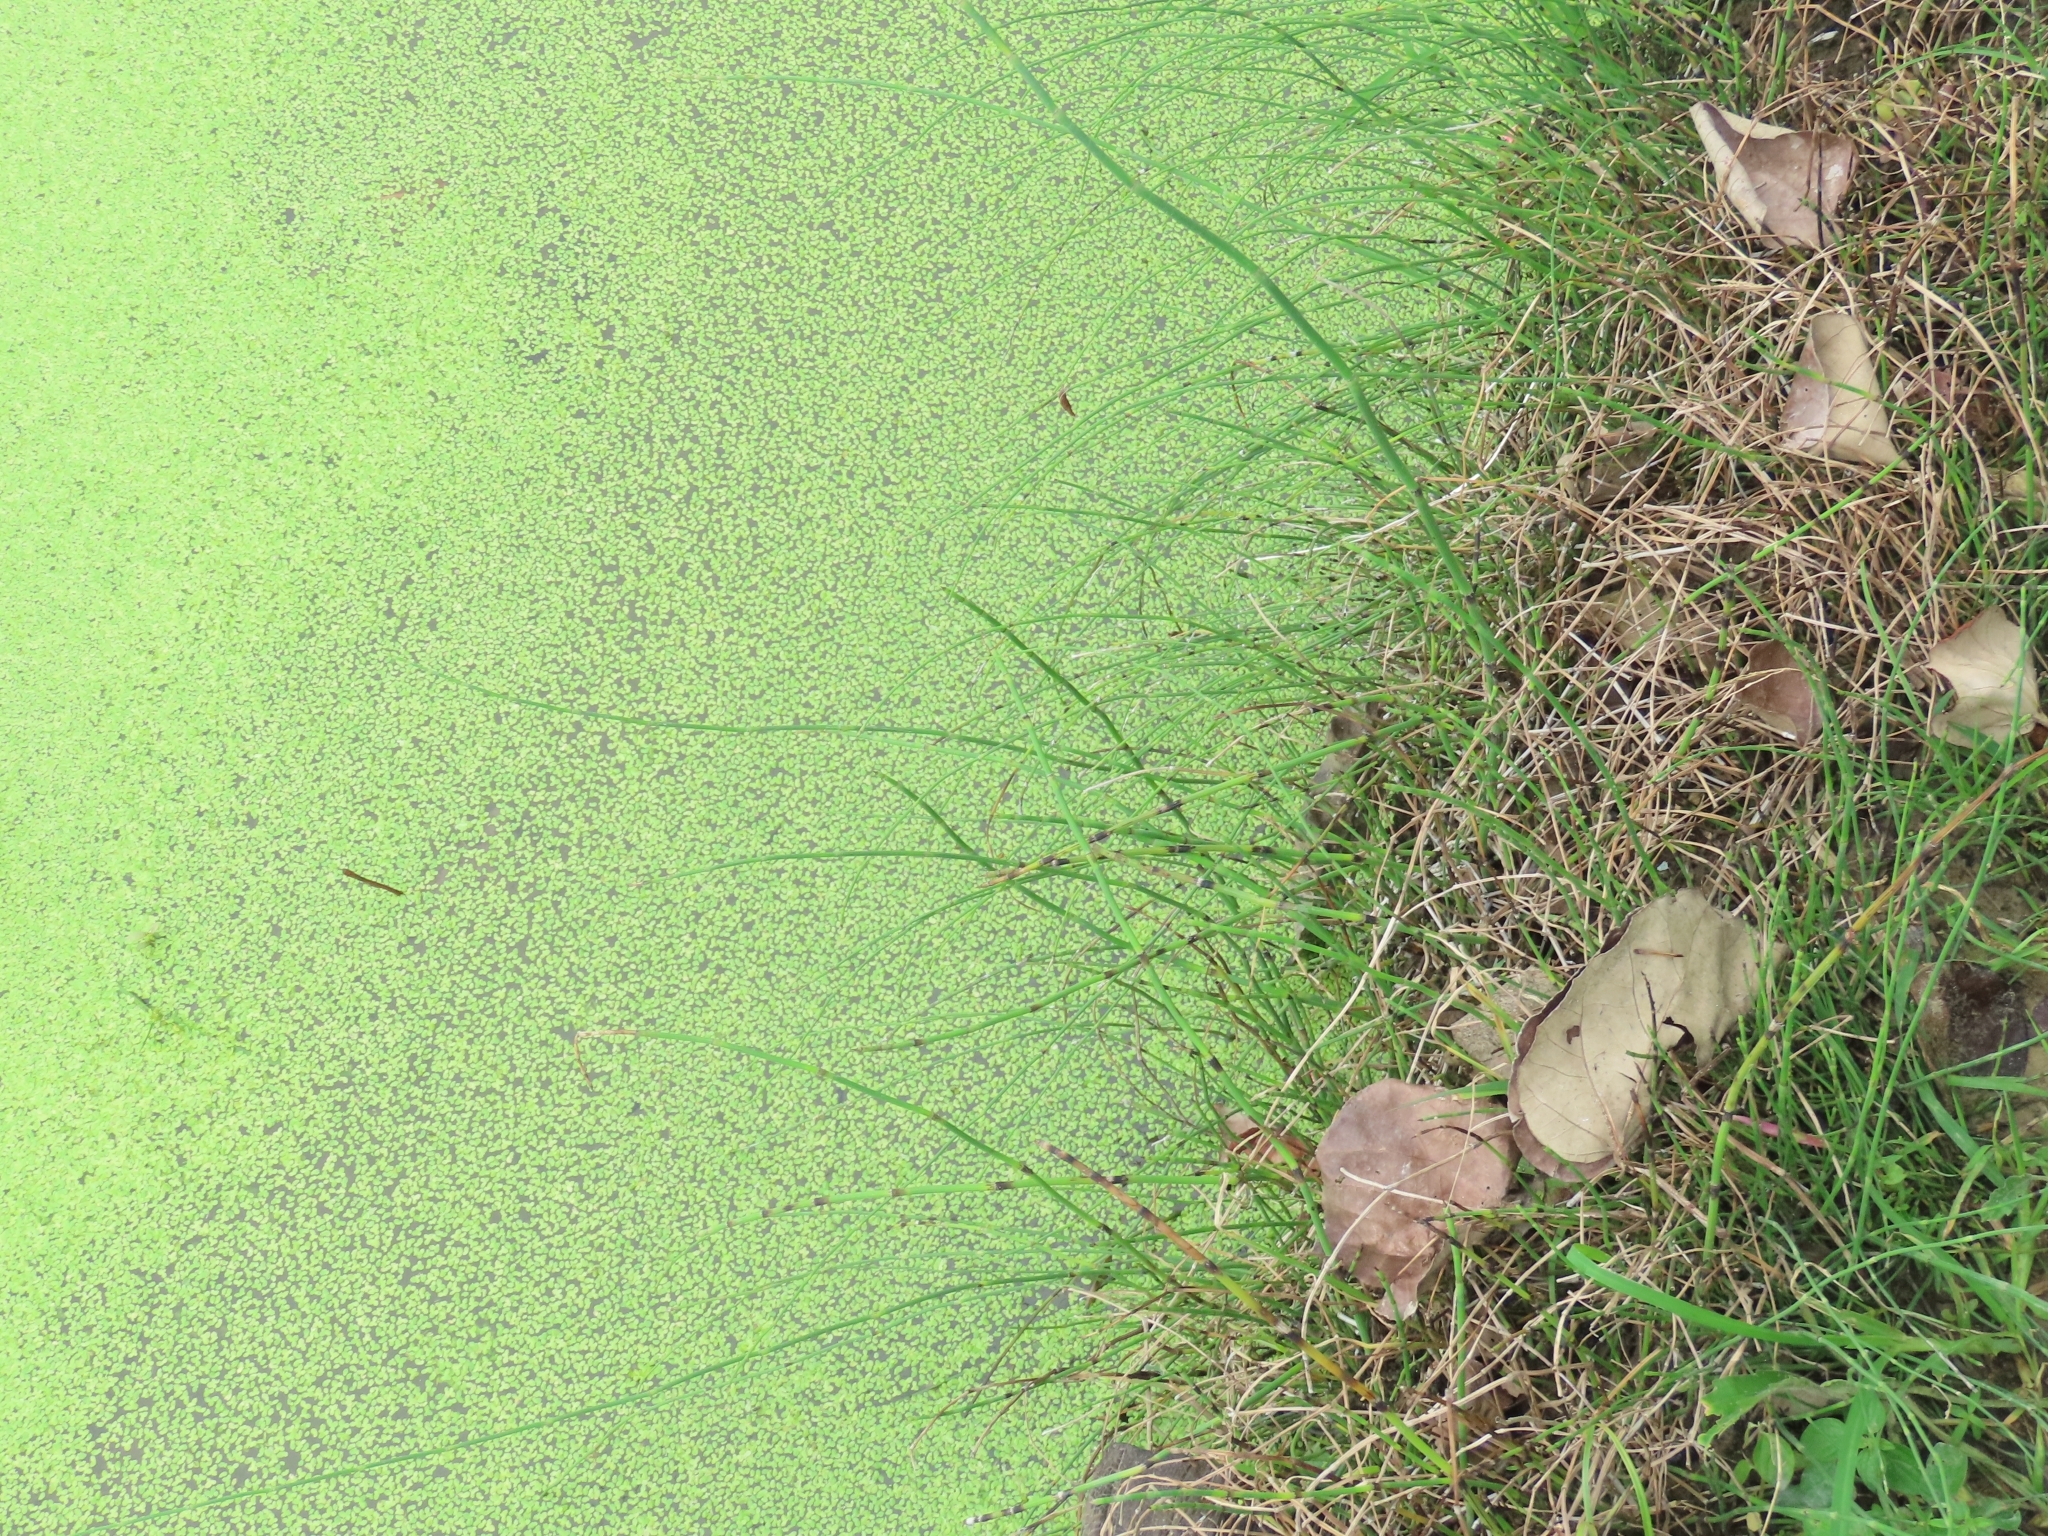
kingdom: Plantae
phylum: Tracheophyta
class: Polypodiopsida
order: Equisetales
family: Equisetaceae
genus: Equisetum
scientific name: Equisetum ramosissimum
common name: Branched horsetail
